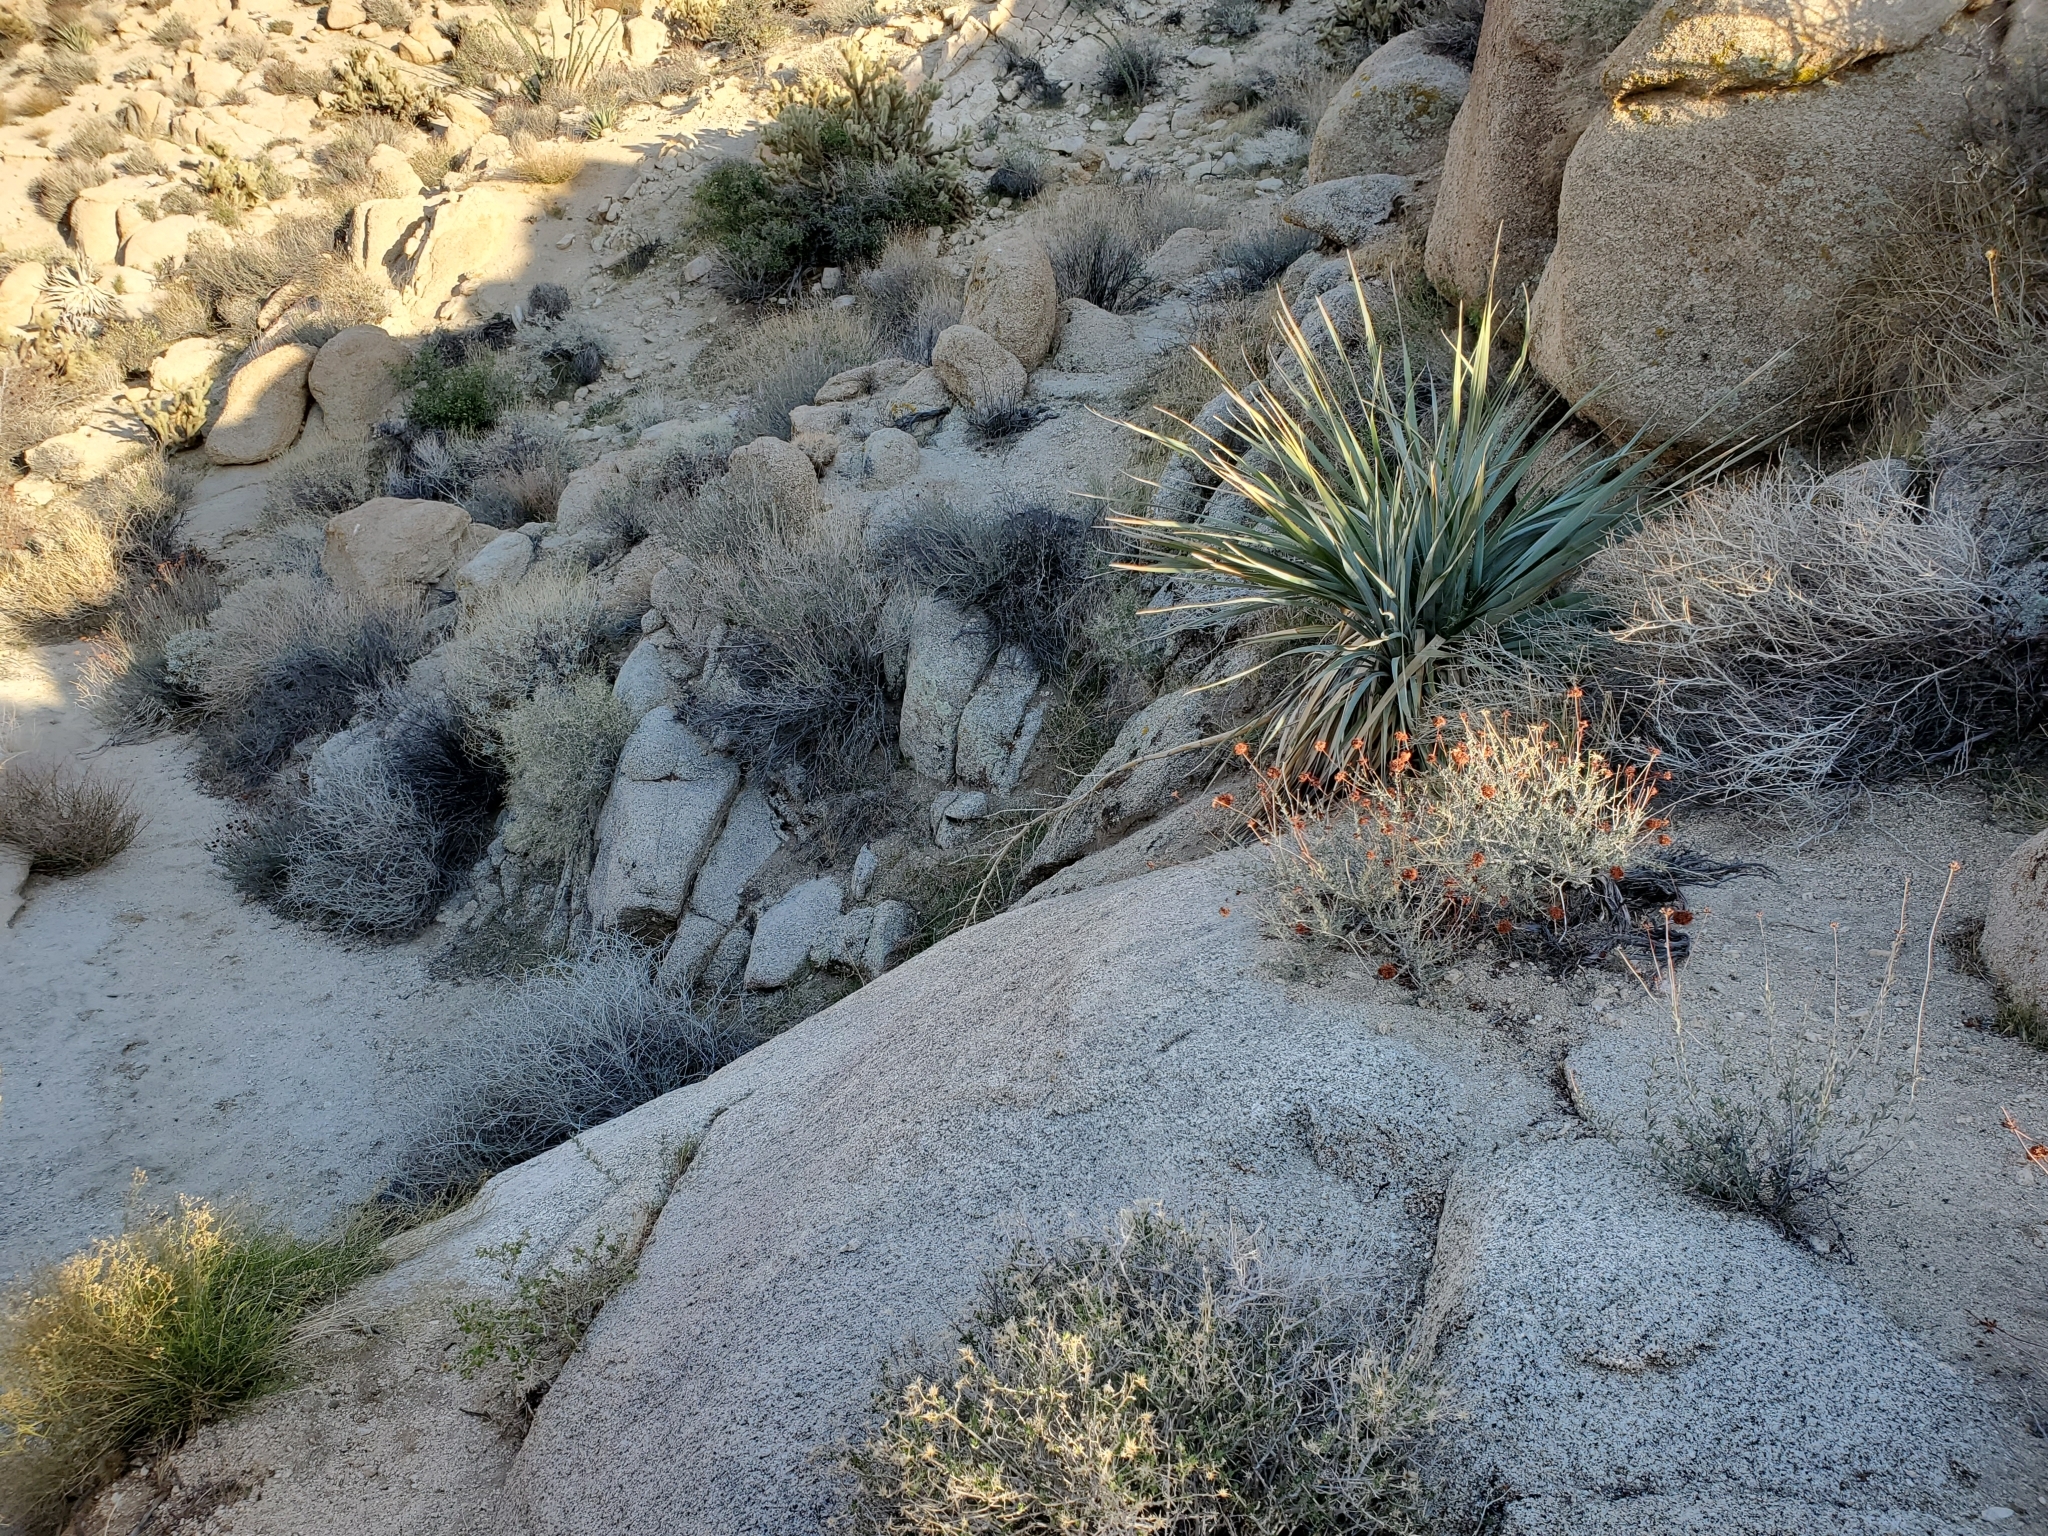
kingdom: Plantae
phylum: Tracheophyta
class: Liliopsida
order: Asparagales
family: Asparagaceae
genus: Nolina
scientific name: Nolina bigelovii
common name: Bigelow bear-grass
